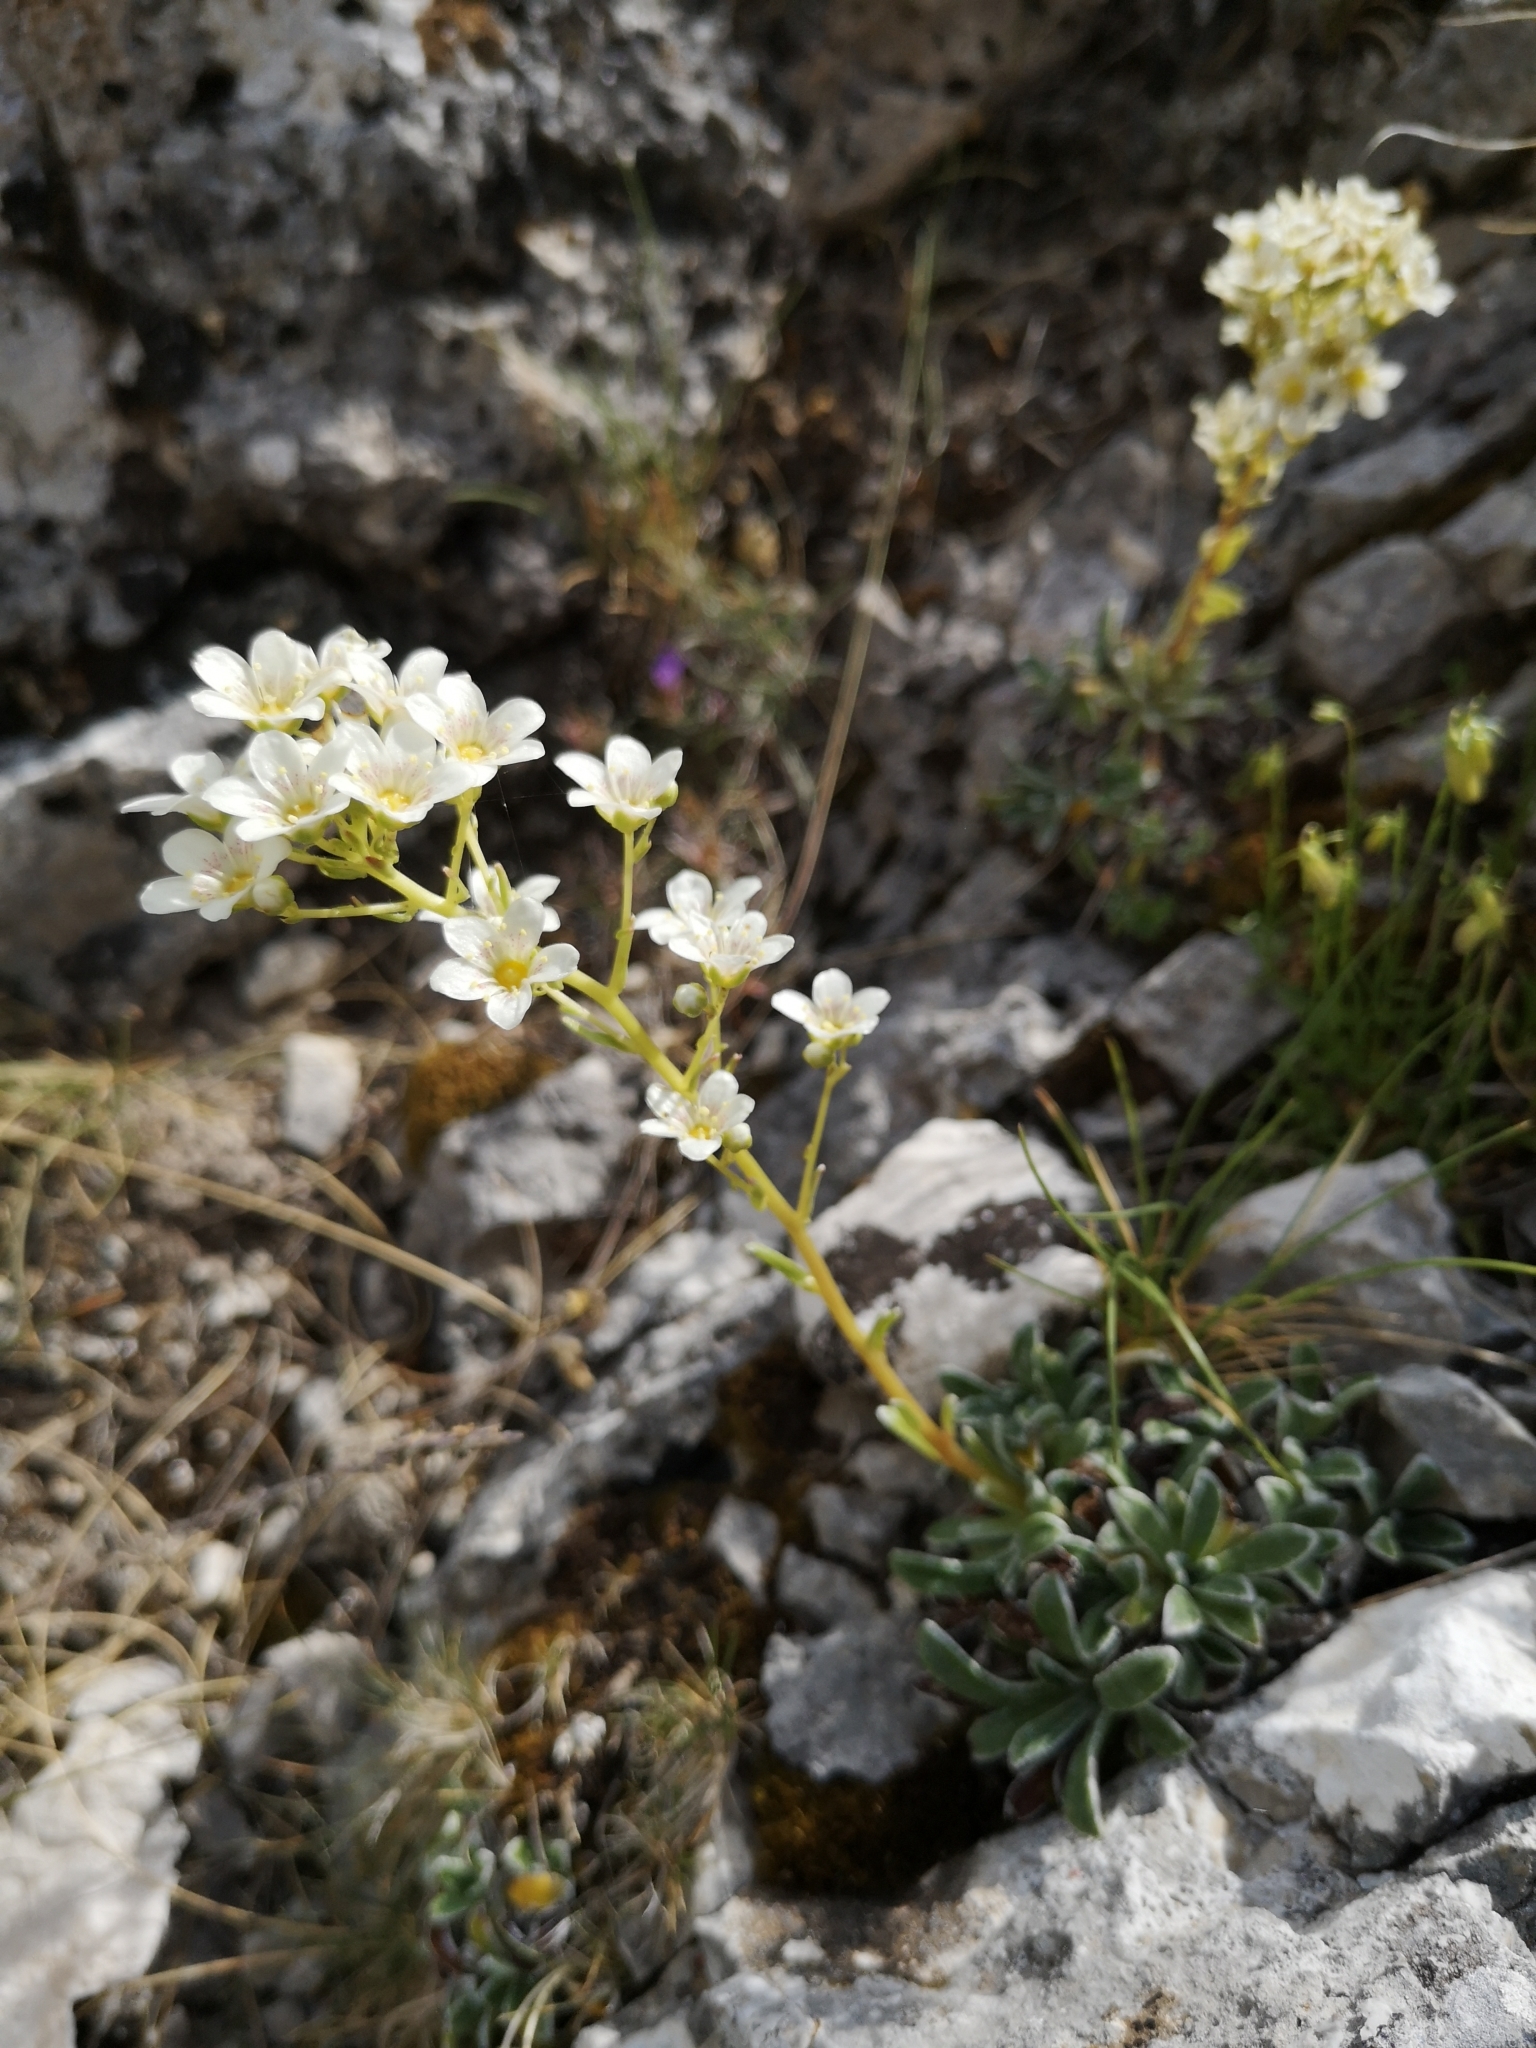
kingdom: Plantae
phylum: Tracheophyta
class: Magnoliopsida
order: Saxifragales
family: Saxifragaceae
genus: Saxifraga
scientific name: Saxifraga callosa
